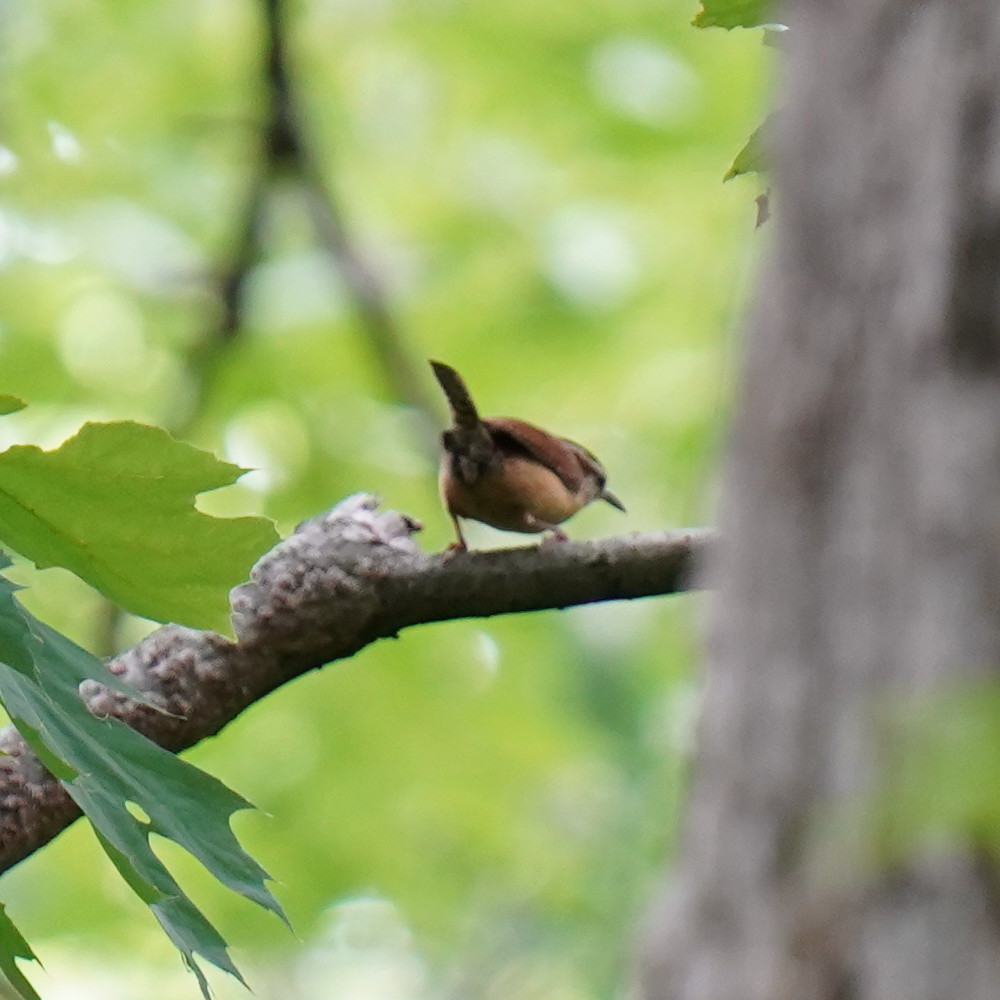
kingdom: Animalia
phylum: Chordata
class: Aves
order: Passeriformes
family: Troglodytidae
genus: Thryothorus
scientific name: Thryothorus ludovicianus
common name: Carolina wren
